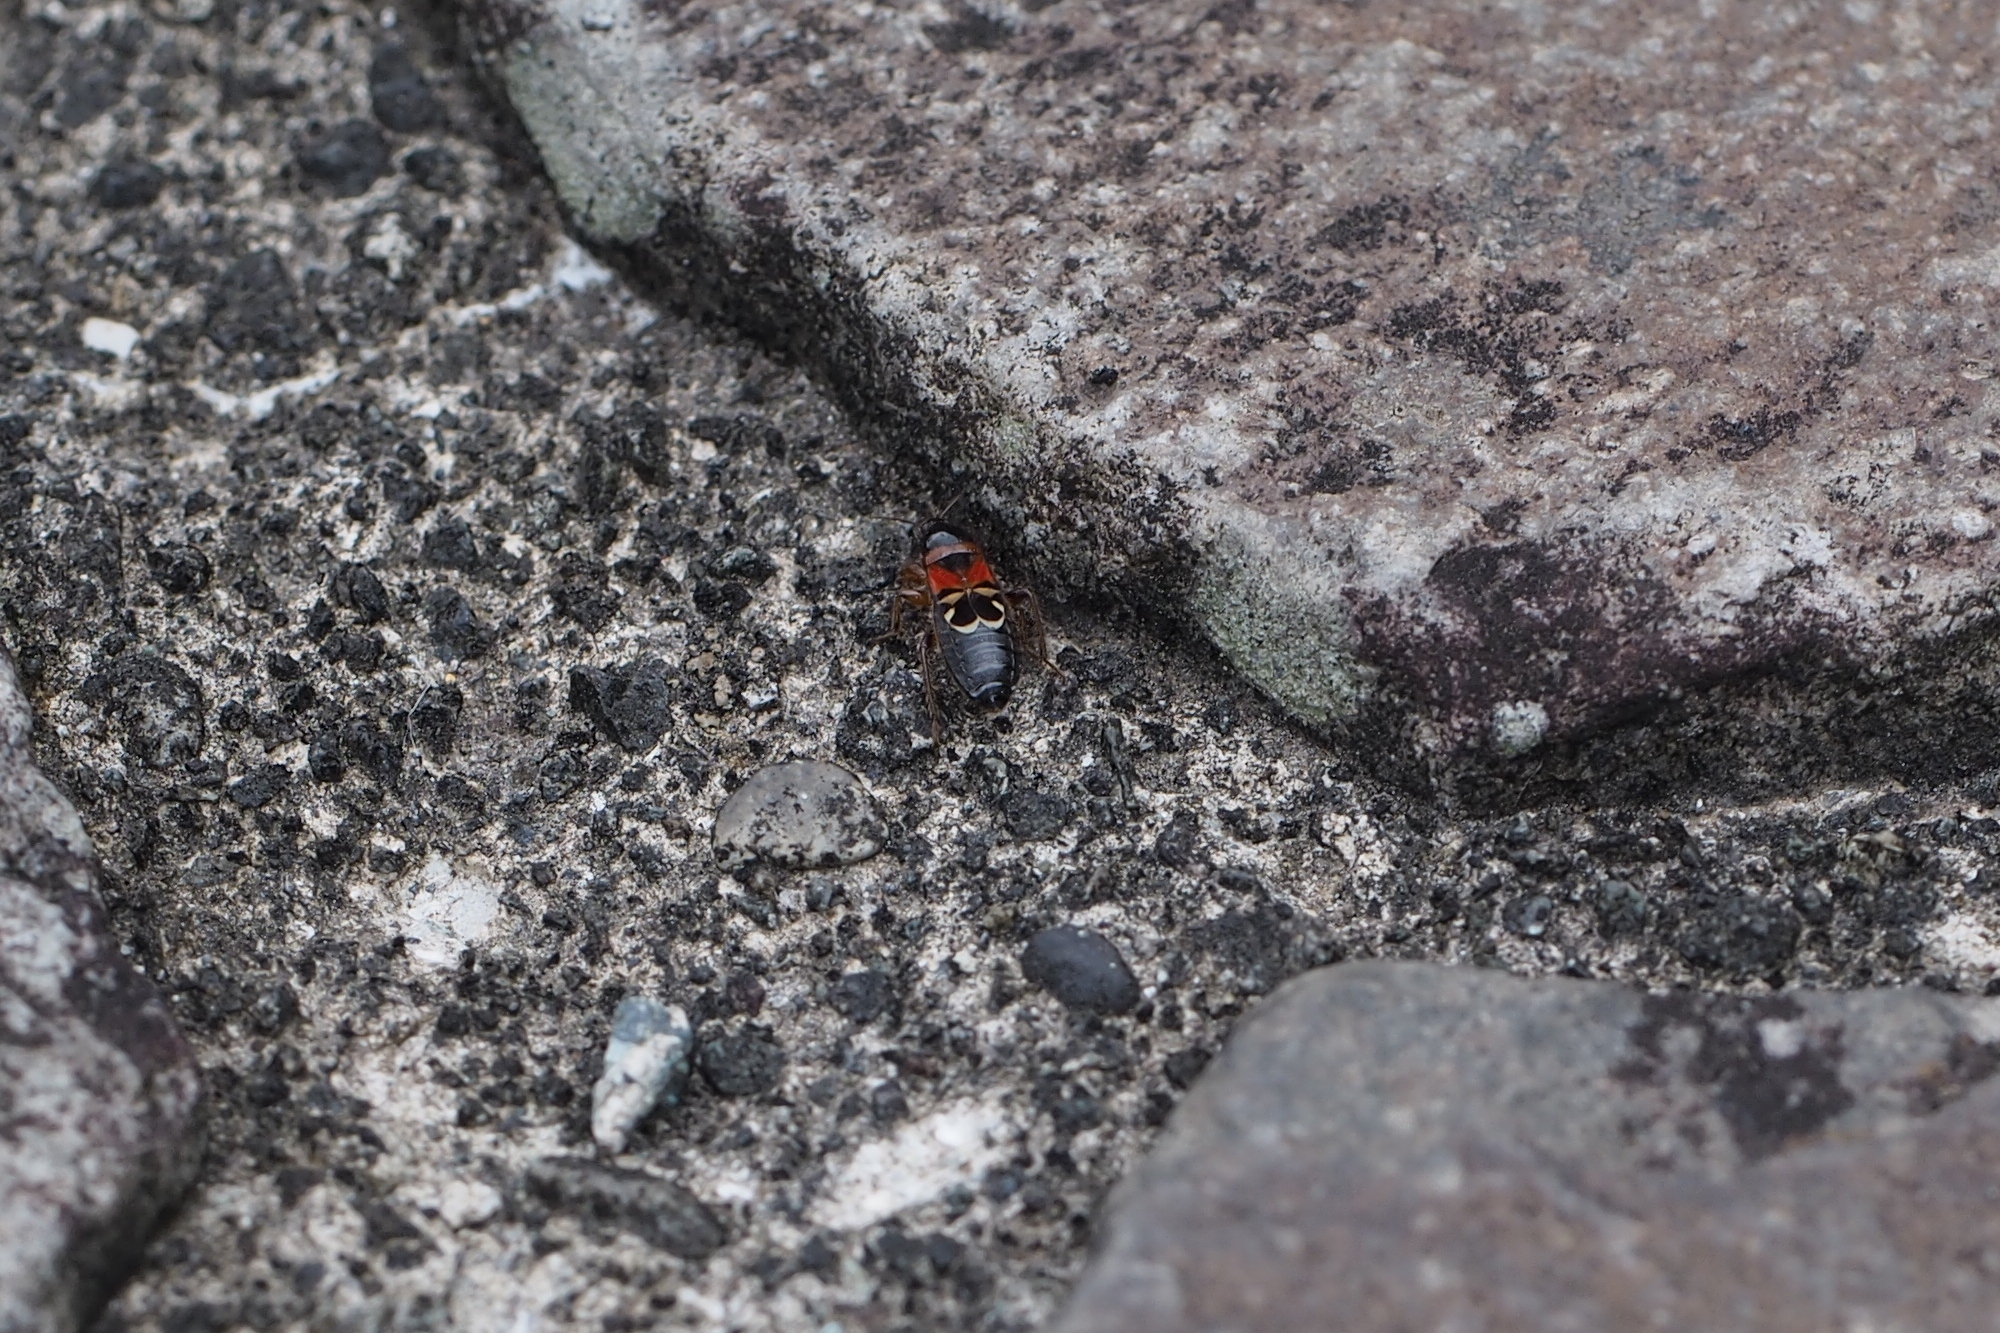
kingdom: Animalia
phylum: Arthropoda
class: Insecta
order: Hemiptera
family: Nabidae
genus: Prostemma
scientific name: Prostemma
